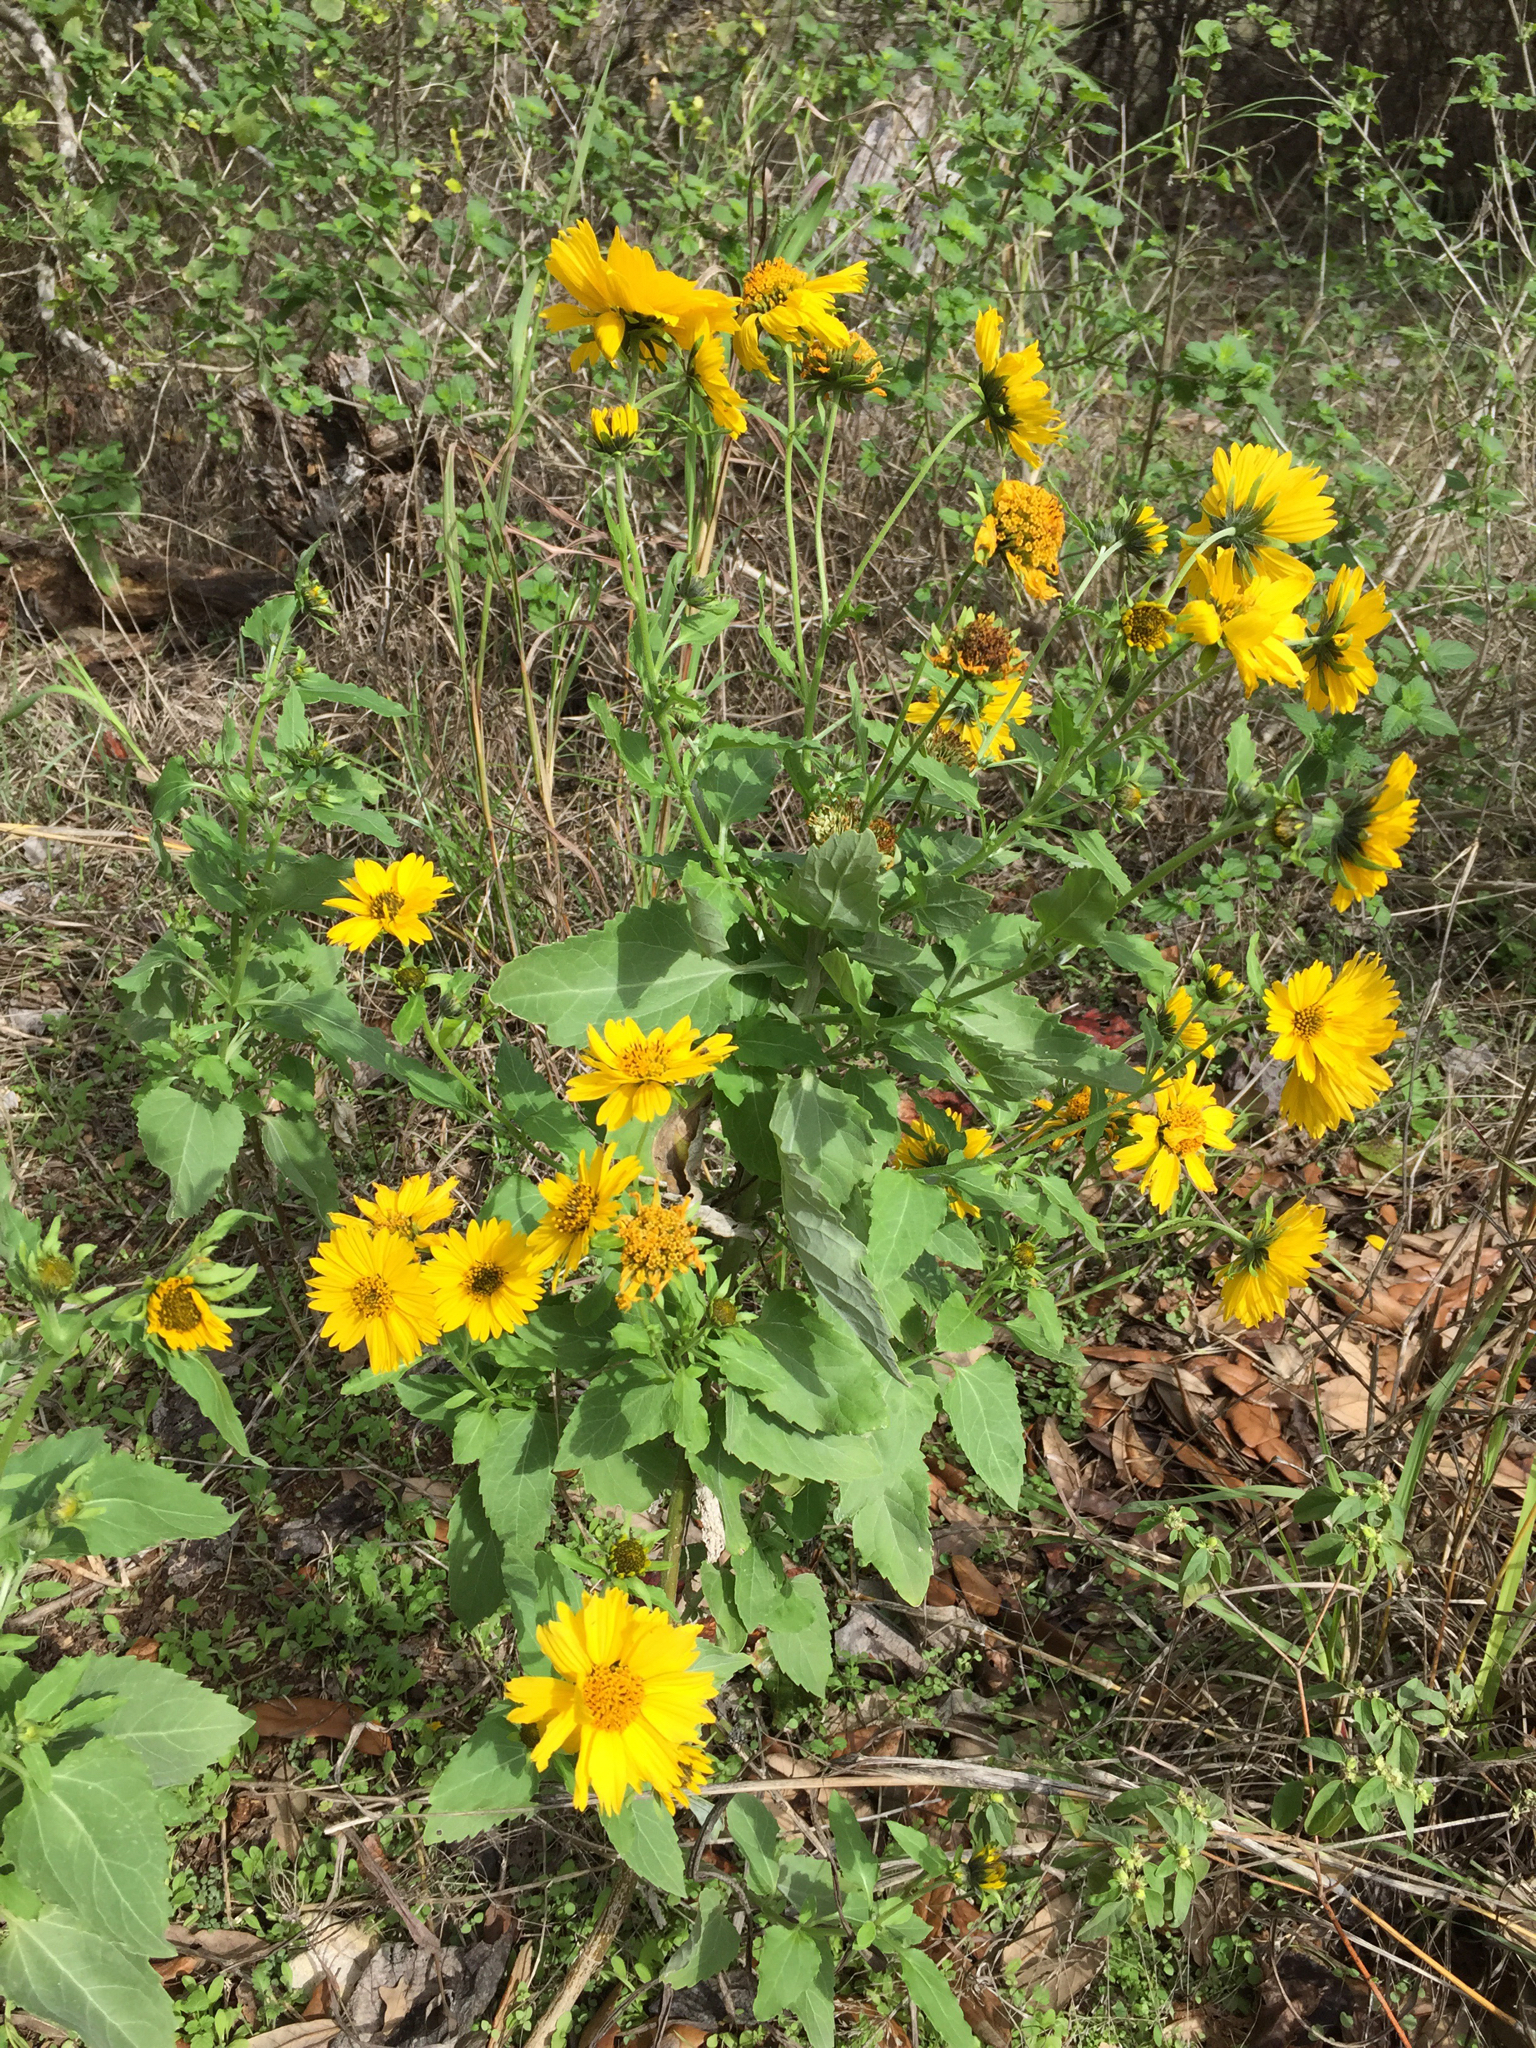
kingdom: Plantae
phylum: Tracheophyta
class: Magnoliopsida
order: Asterales
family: Asteraceae
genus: Verbesina
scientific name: Verbesina encelioides
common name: Golden crownbeard
